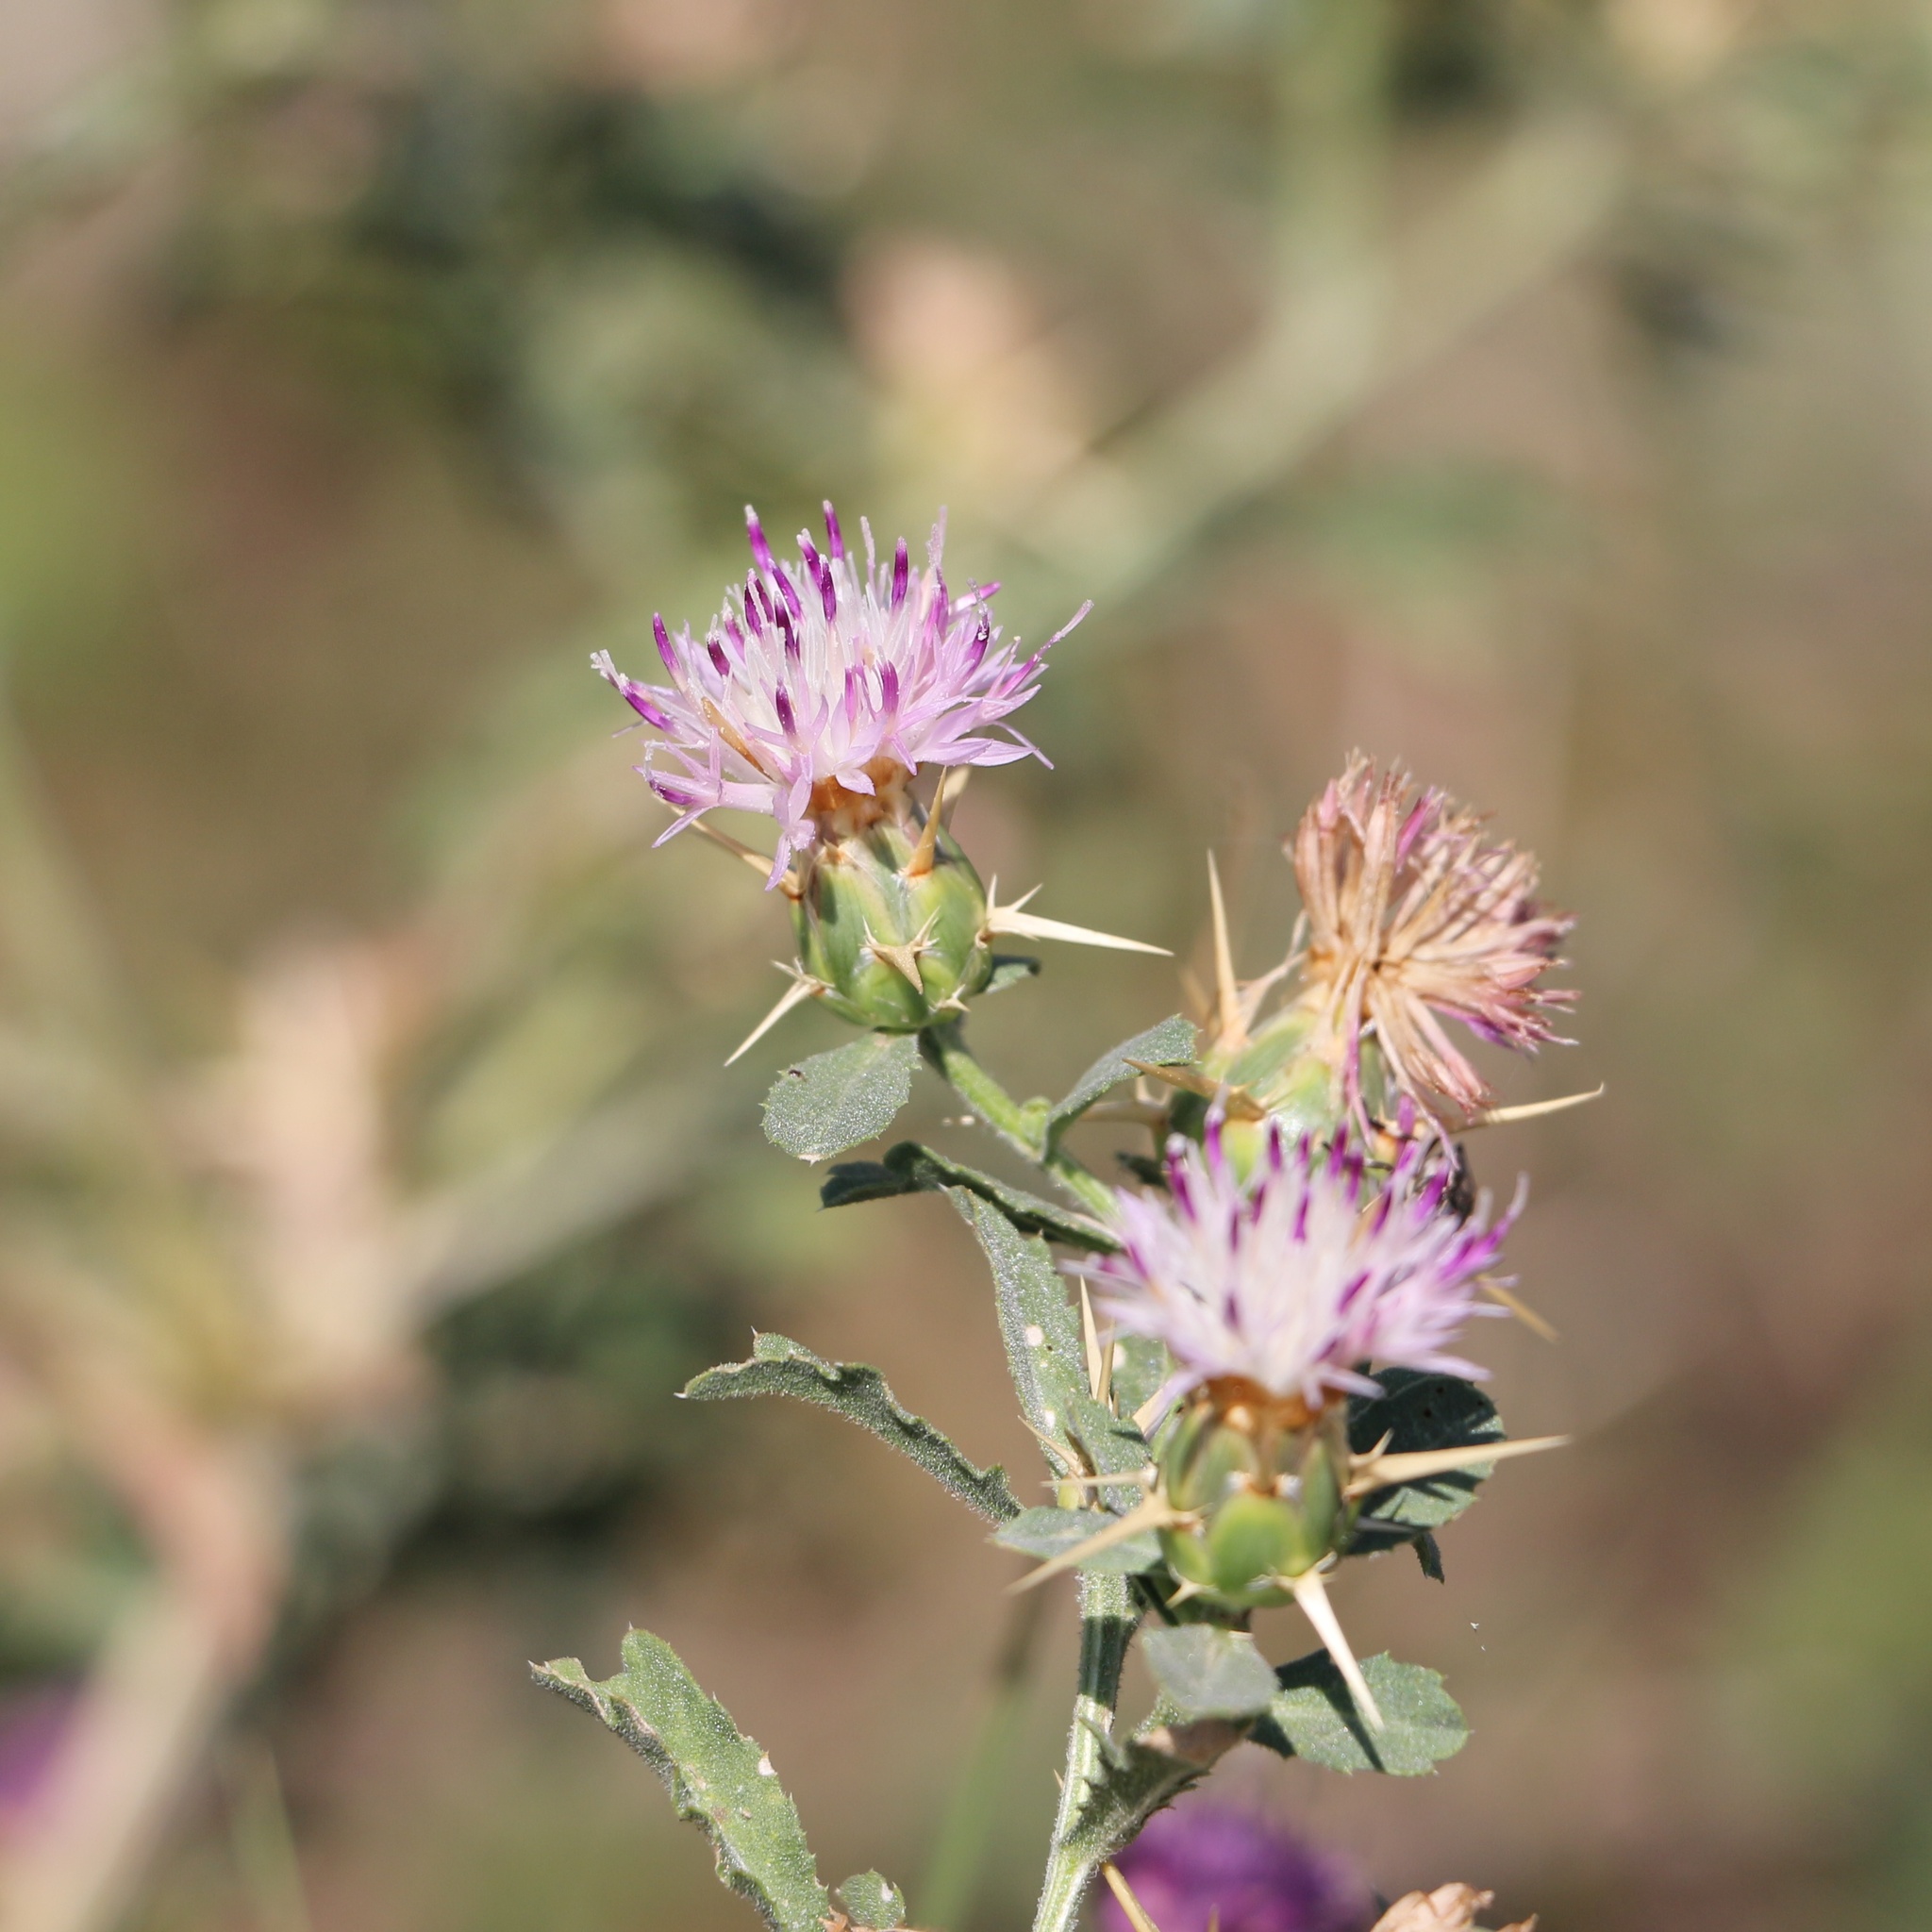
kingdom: Plantae
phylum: Tracheophyta
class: Magnoliopsida
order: Asterales
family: Asteraceae
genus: Centaurea
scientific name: Centaurea iberica
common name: Iberian knapweed
